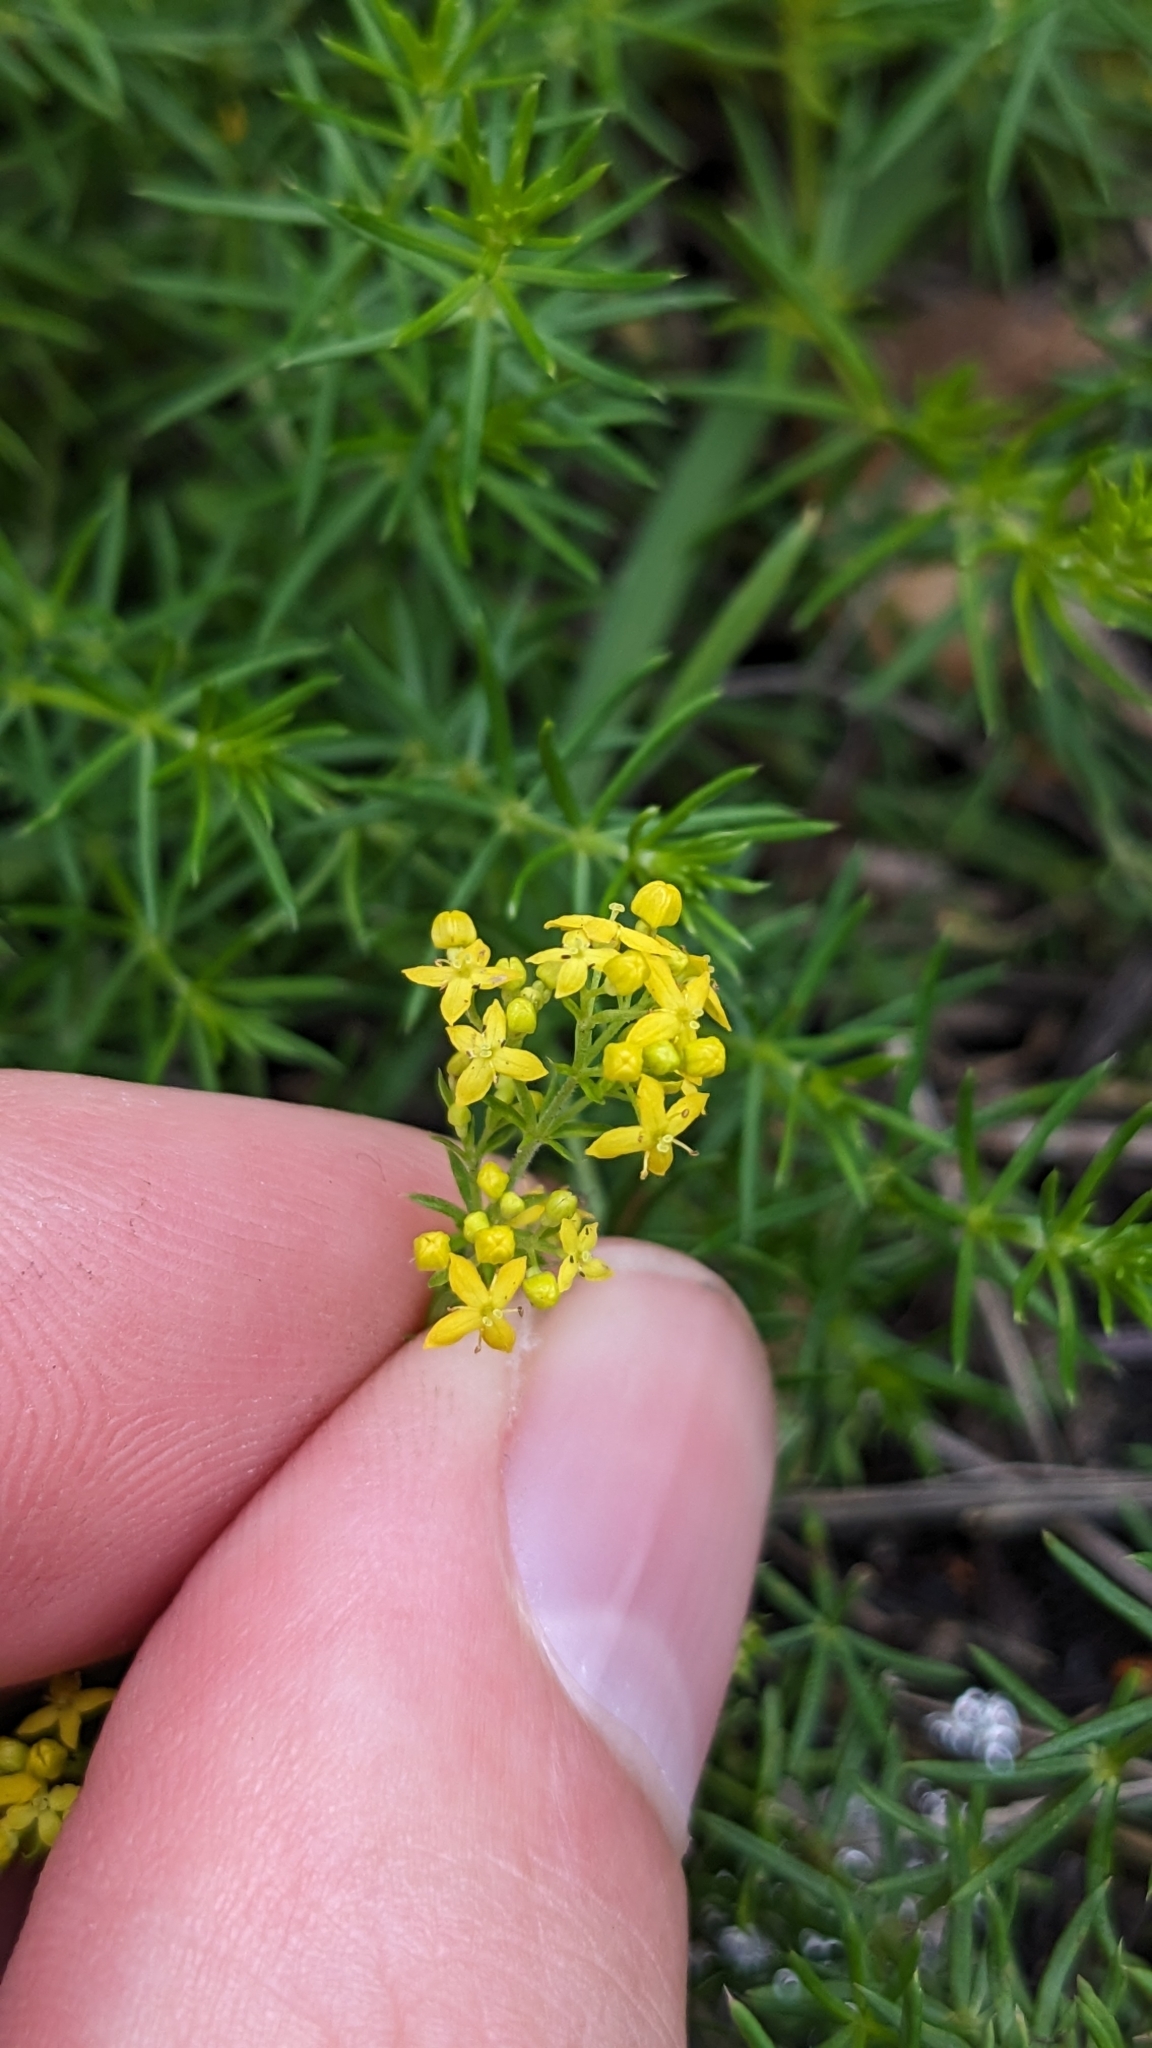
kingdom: Plantae
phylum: Tracheophyta
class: Magnoliopsida
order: Gentianales
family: Rubiaceae
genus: Galium
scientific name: Galium verum
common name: Lady's bedstraw
